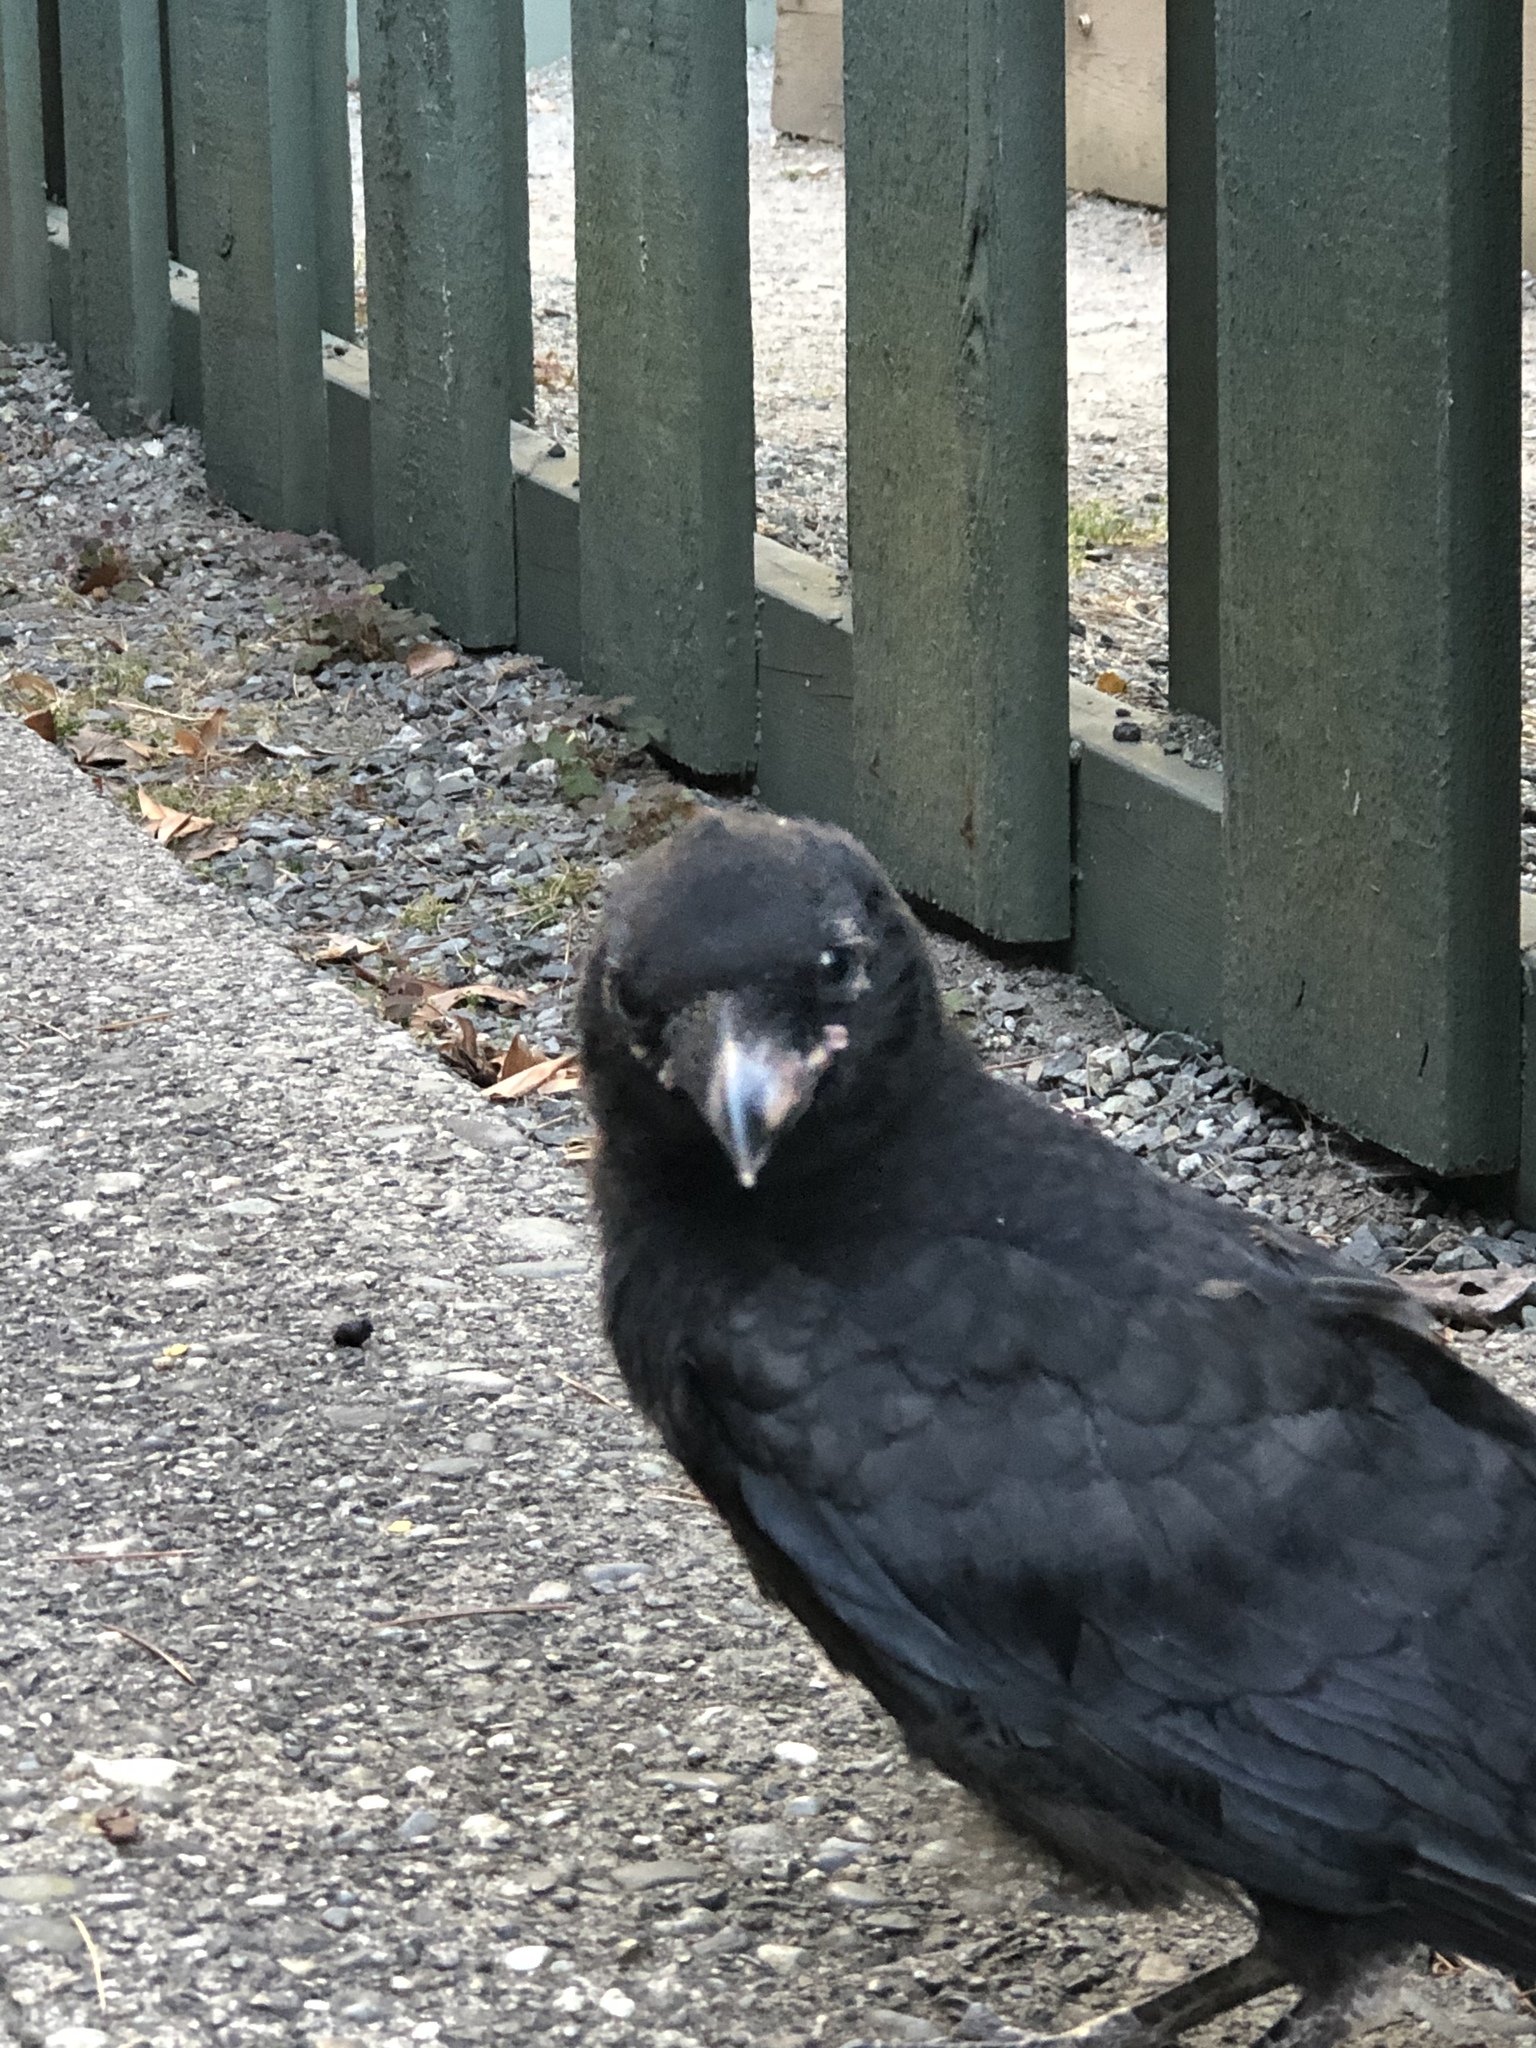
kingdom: Animalia
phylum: Chordata
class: Aves
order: Passeriformes
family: Corvidae
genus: Corvus
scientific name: Corvus brachyrhynchos
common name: American crow
